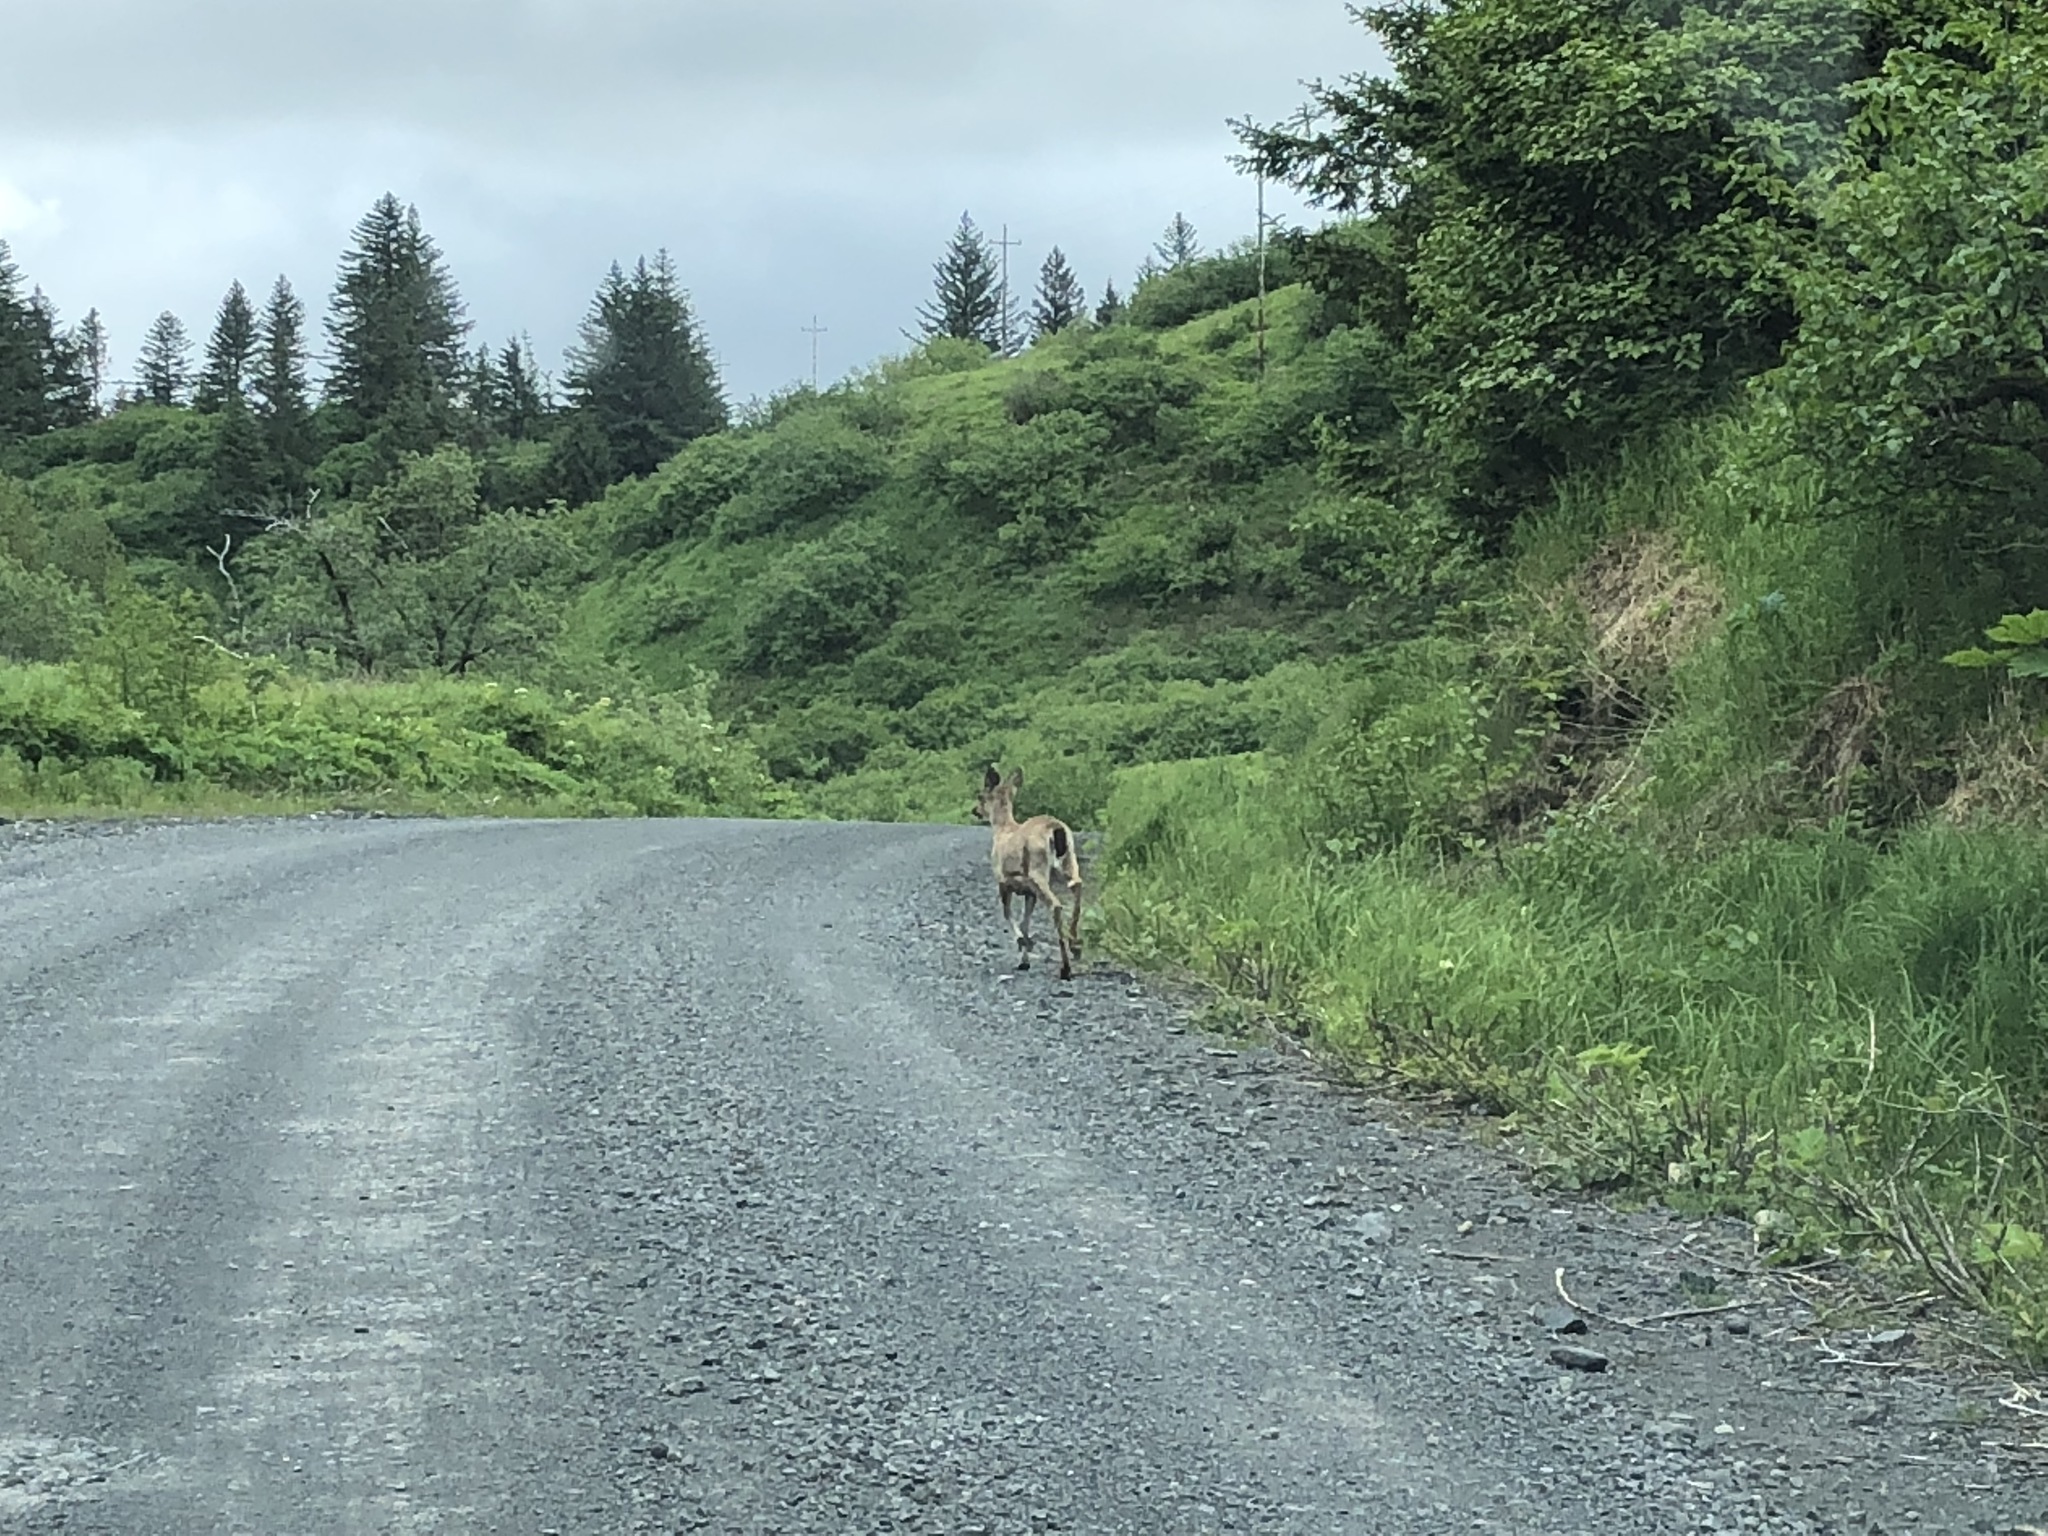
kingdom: Animalia
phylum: Chordata
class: Mammalia
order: Artiodactyla
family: Cervidae
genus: Odocoileus
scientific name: Odocoileus hemionus
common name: Mule deer
